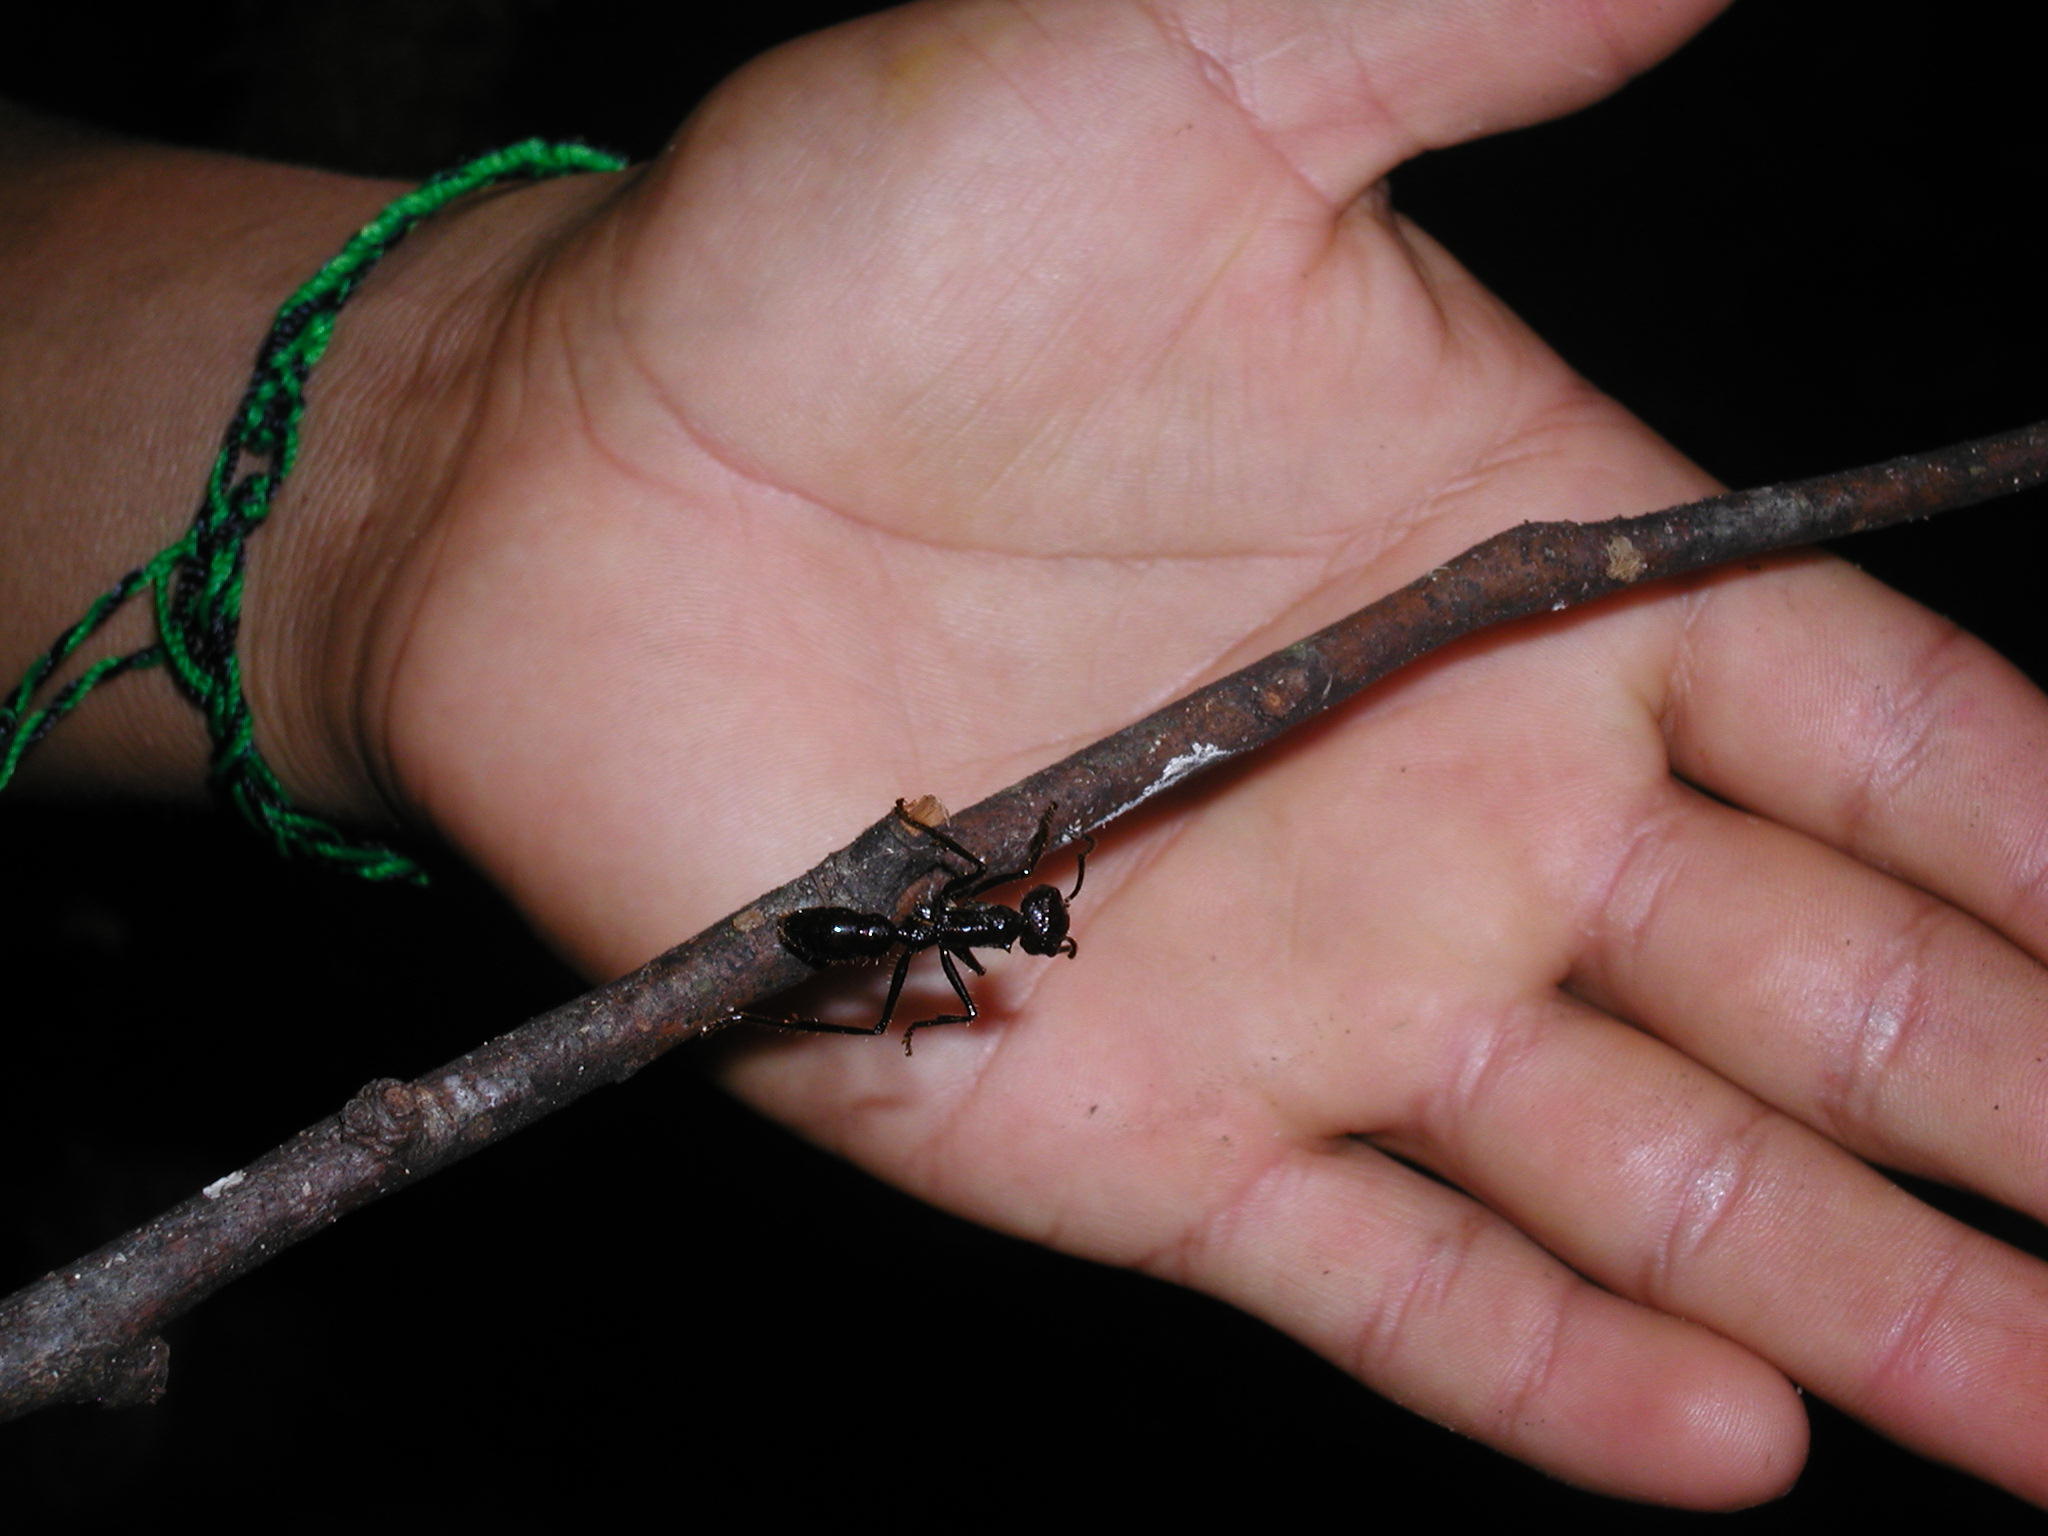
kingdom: Animalia
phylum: Arthropoda
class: Insecta
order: Hymenoptera
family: Formicidae
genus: Paraponera
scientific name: Paraponera clavata
